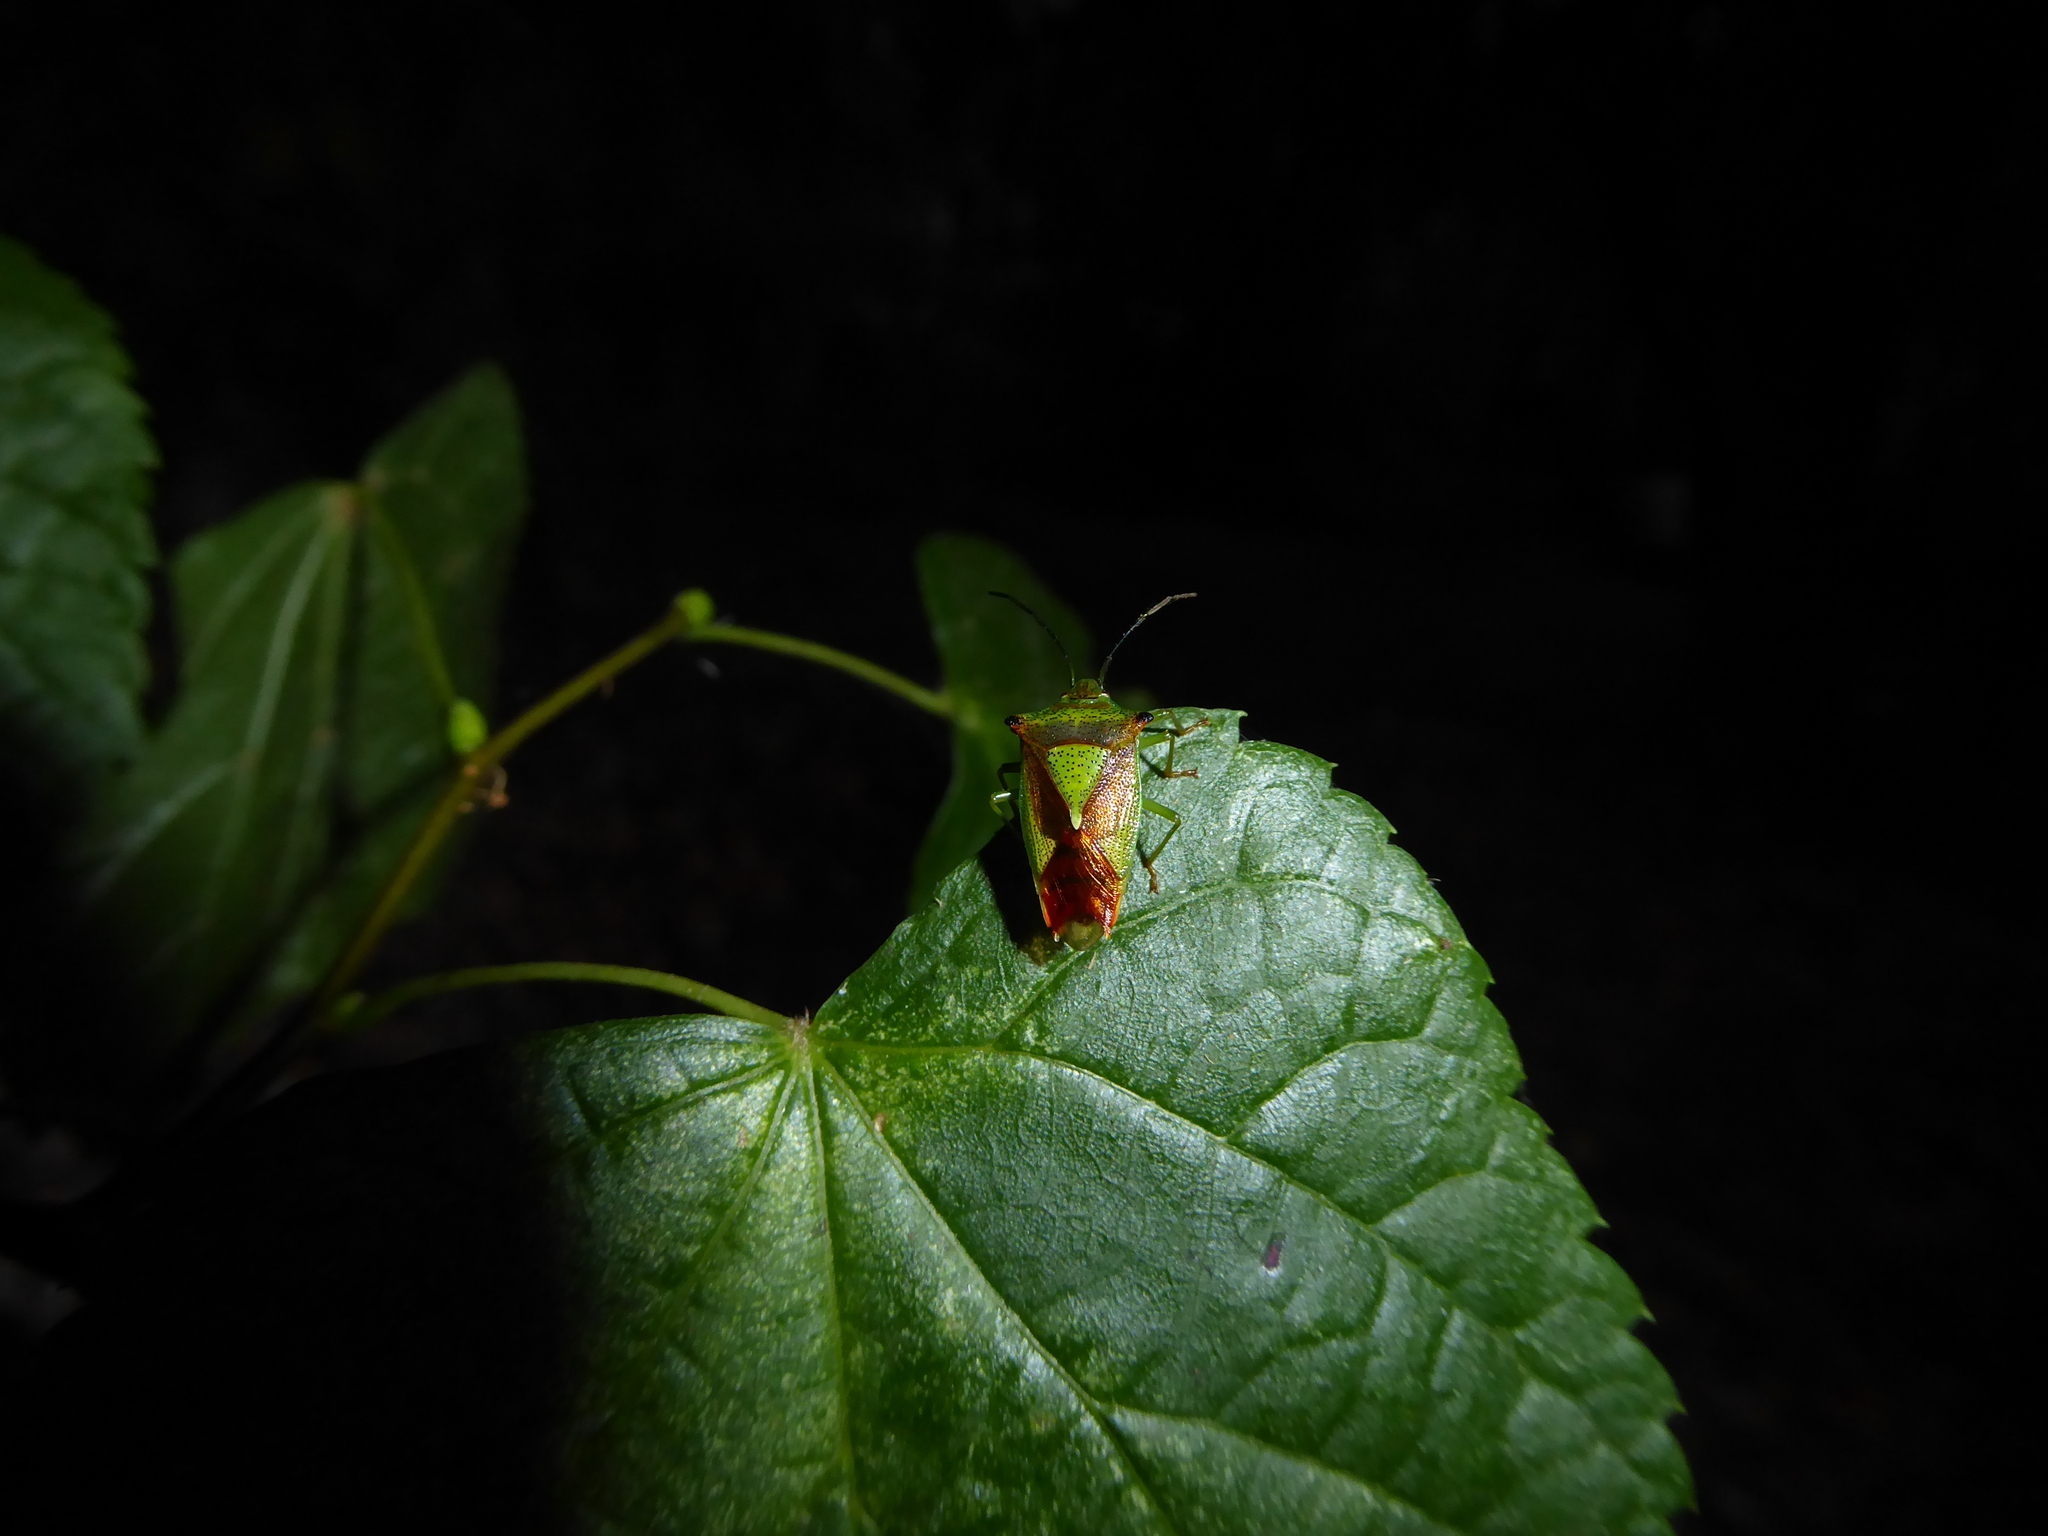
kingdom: Animalia
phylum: Arthropoda
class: Insecta
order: Hemiptera
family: Acanthosomatidae
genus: Acanthosoma
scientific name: Acanthosoma haemorrhoidale
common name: Hawthorn shieldbug
